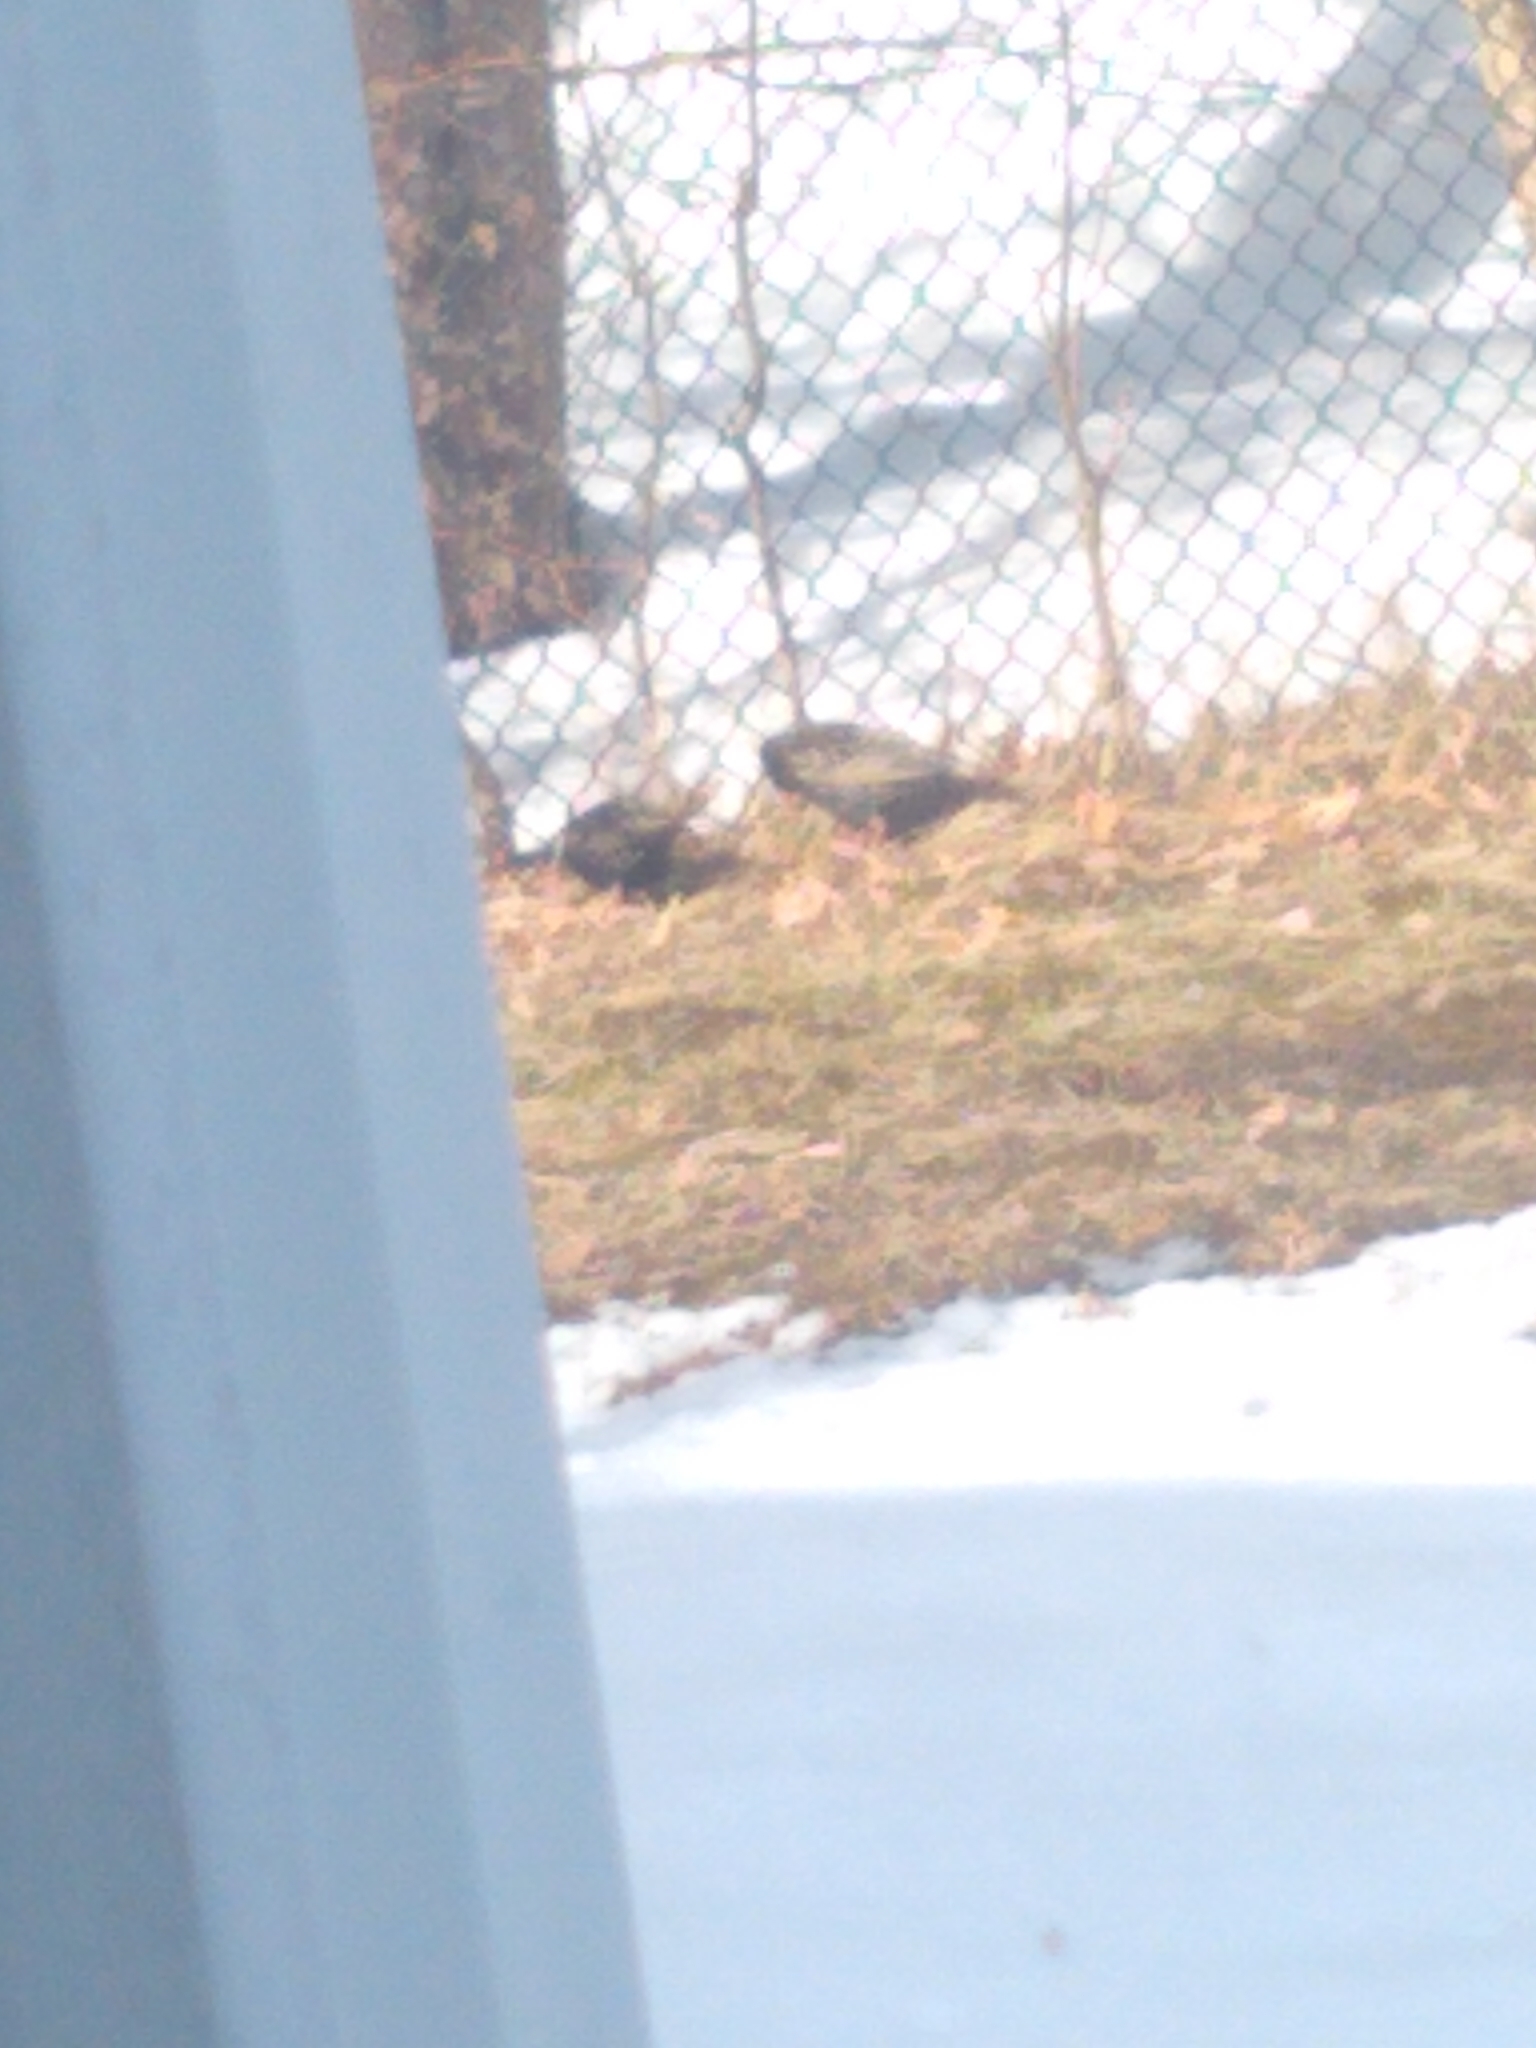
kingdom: Animalia
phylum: Chordata
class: Aves
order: Passeriformes
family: Sturnidae
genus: Sturnus
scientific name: Sturnus vulgaris
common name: Common starling
